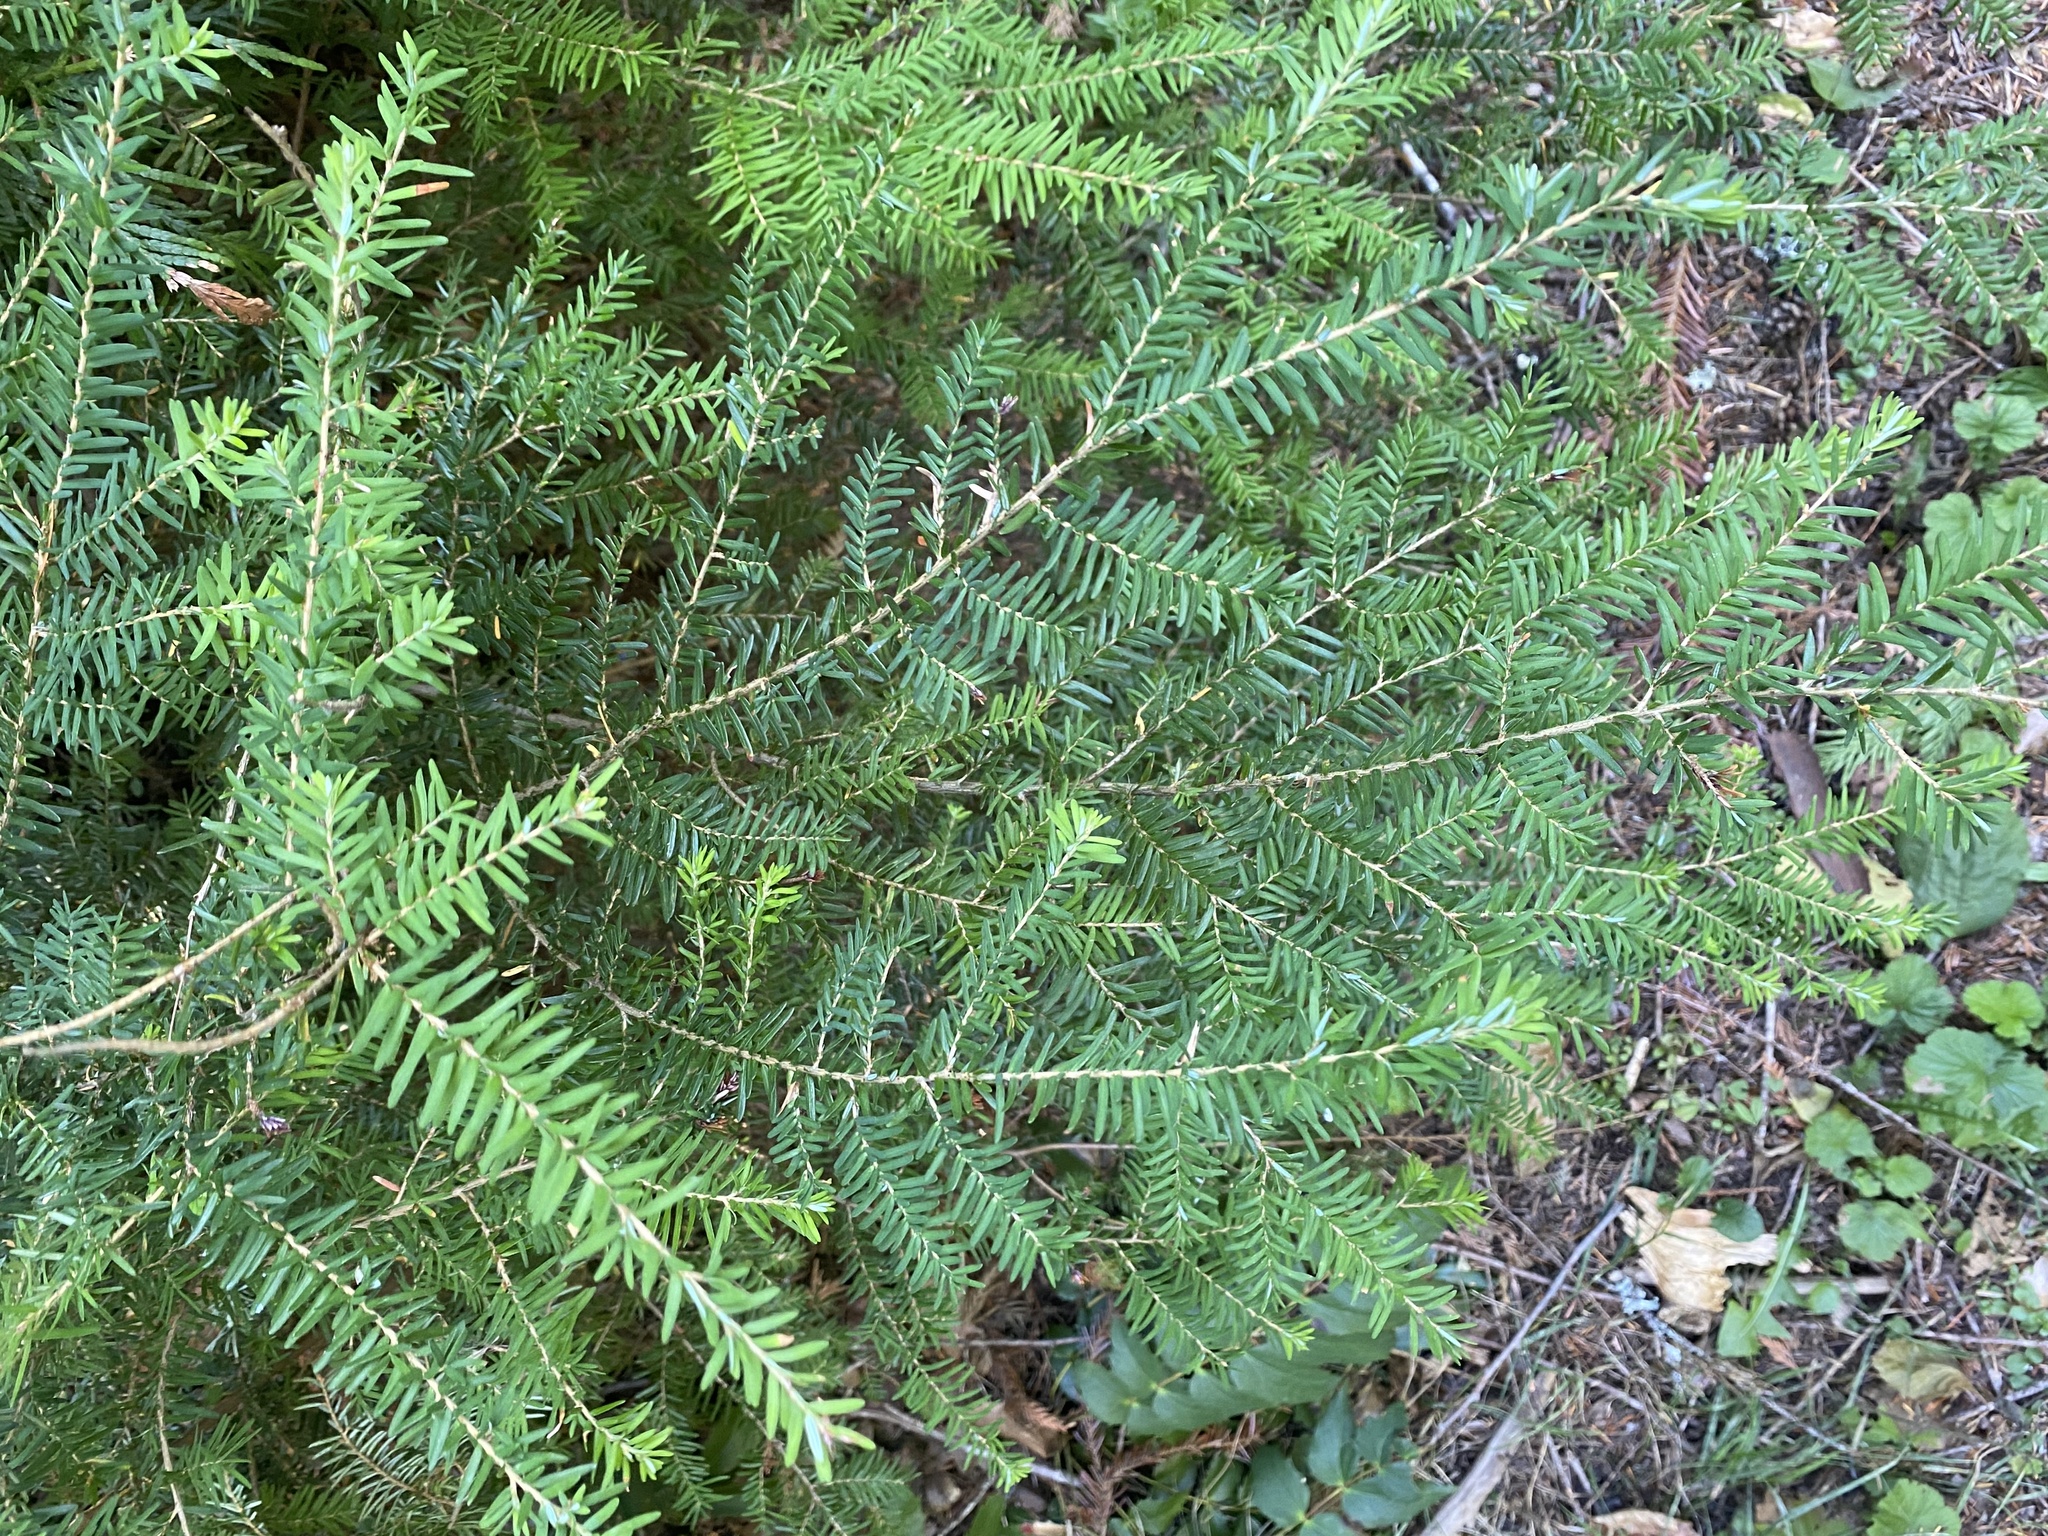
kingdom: Plantae
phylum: Tracheophyta
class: Pinopsida
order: Pinales
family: Pinaceae
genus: Tsuga
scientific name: Tsuga heterophylla
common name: Western hemlock
